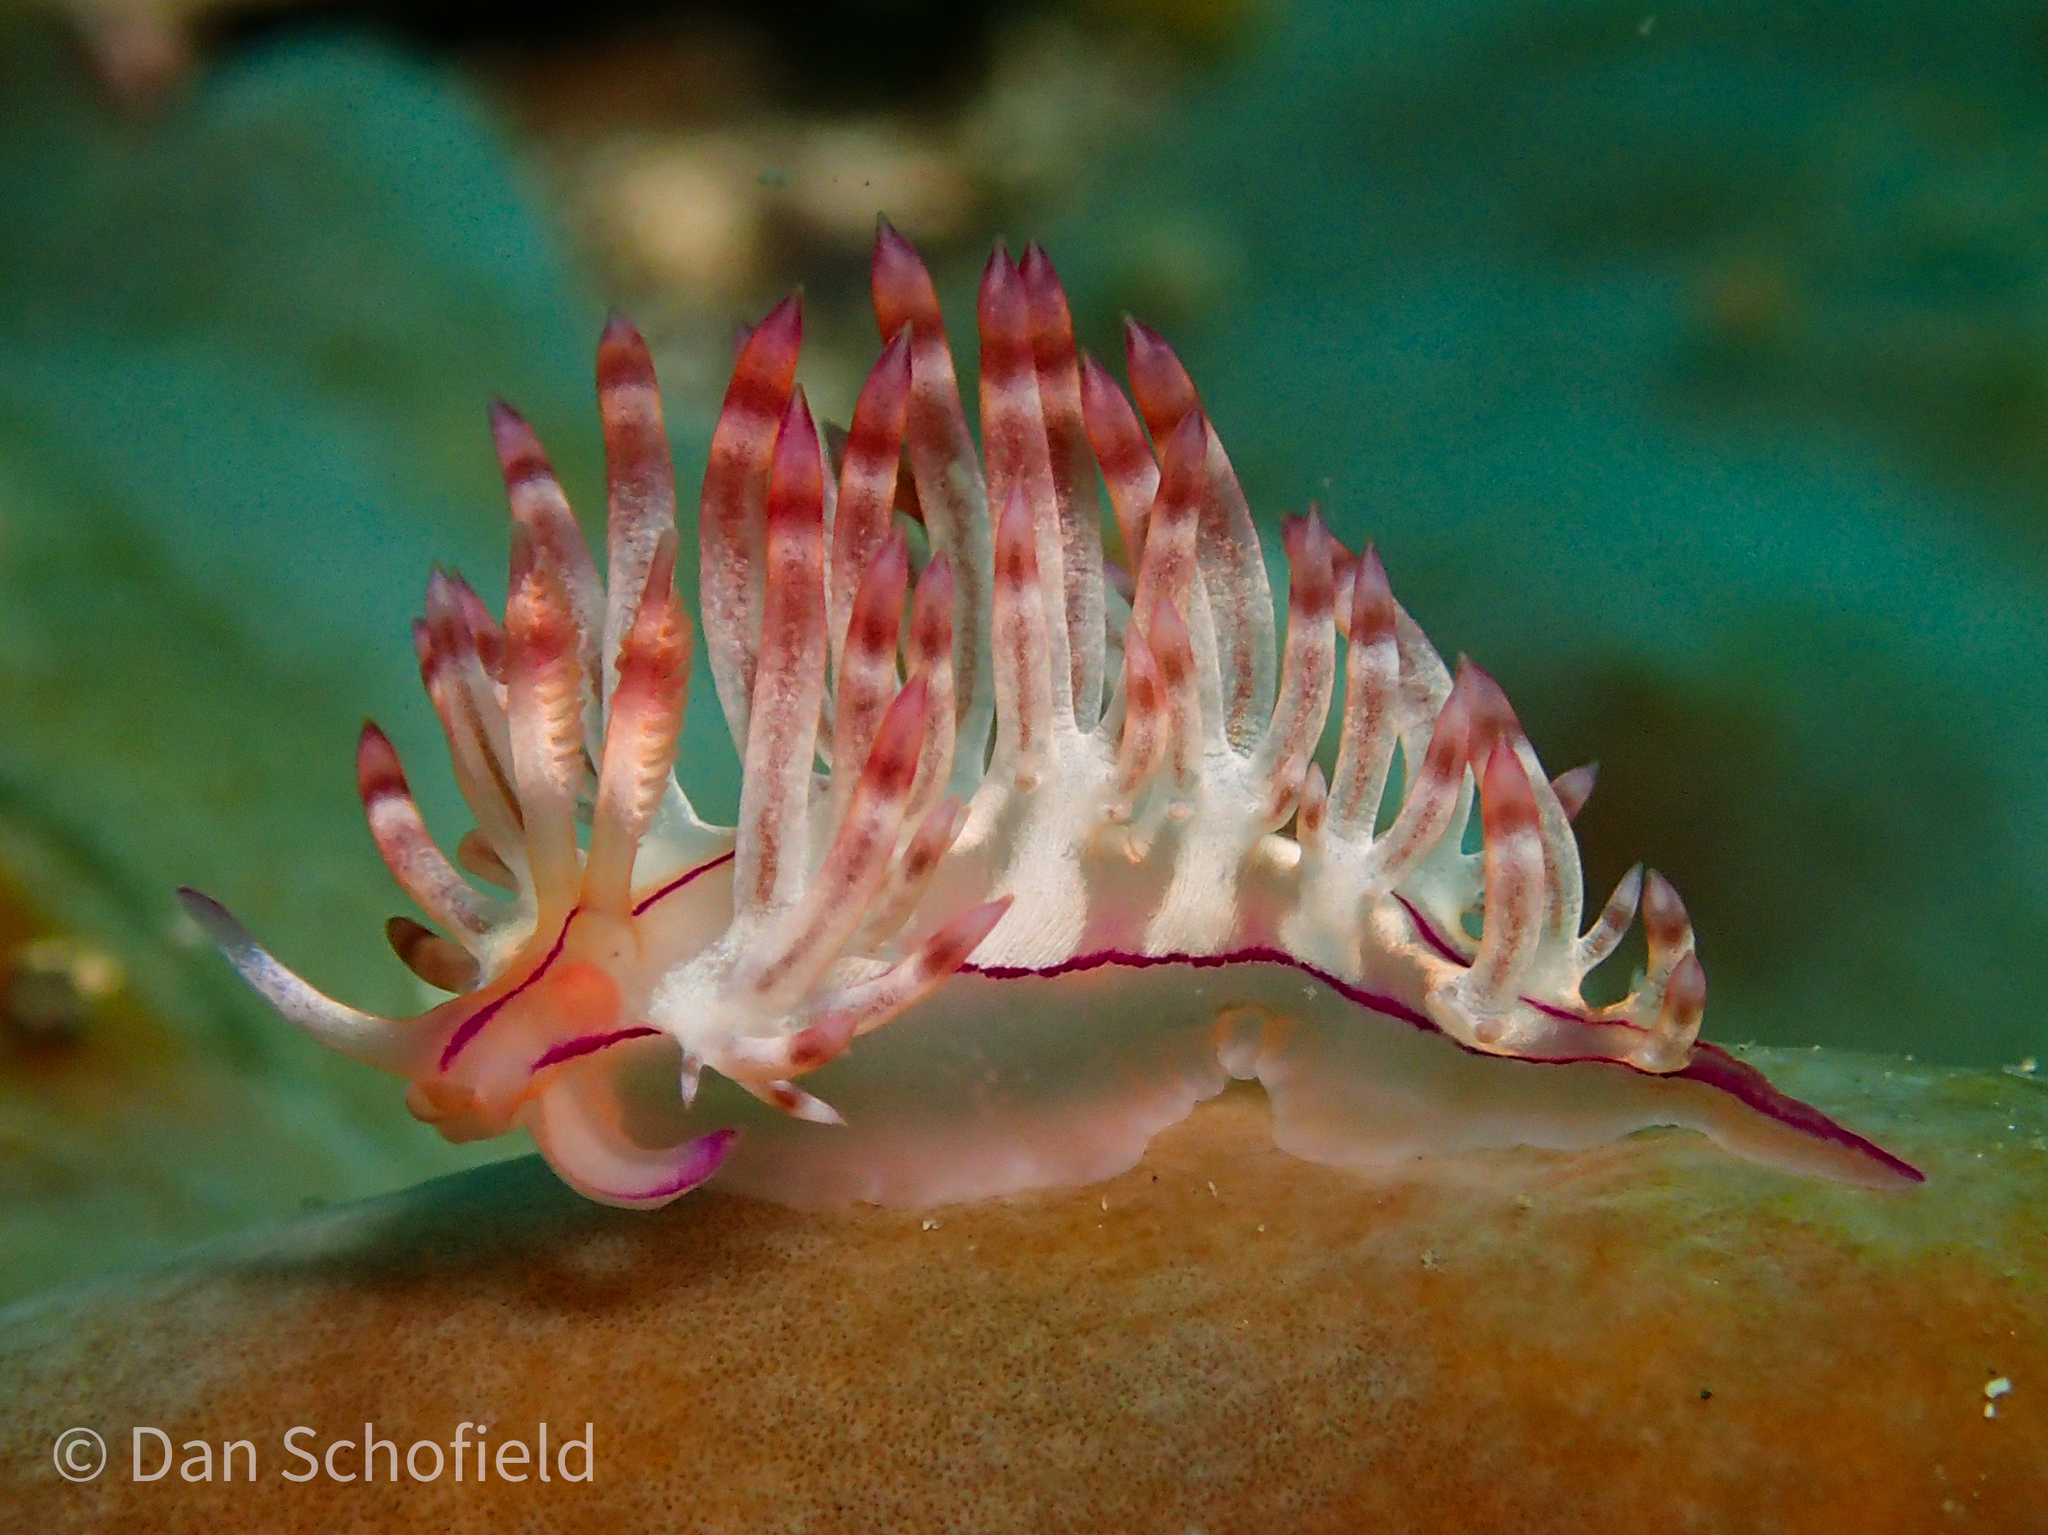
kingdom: Animalia
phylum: Mollusca
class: Gastropoda
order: Nudibranchia
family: Flabellinidae
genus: Coryphellina
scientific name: Coryphellina flamma
